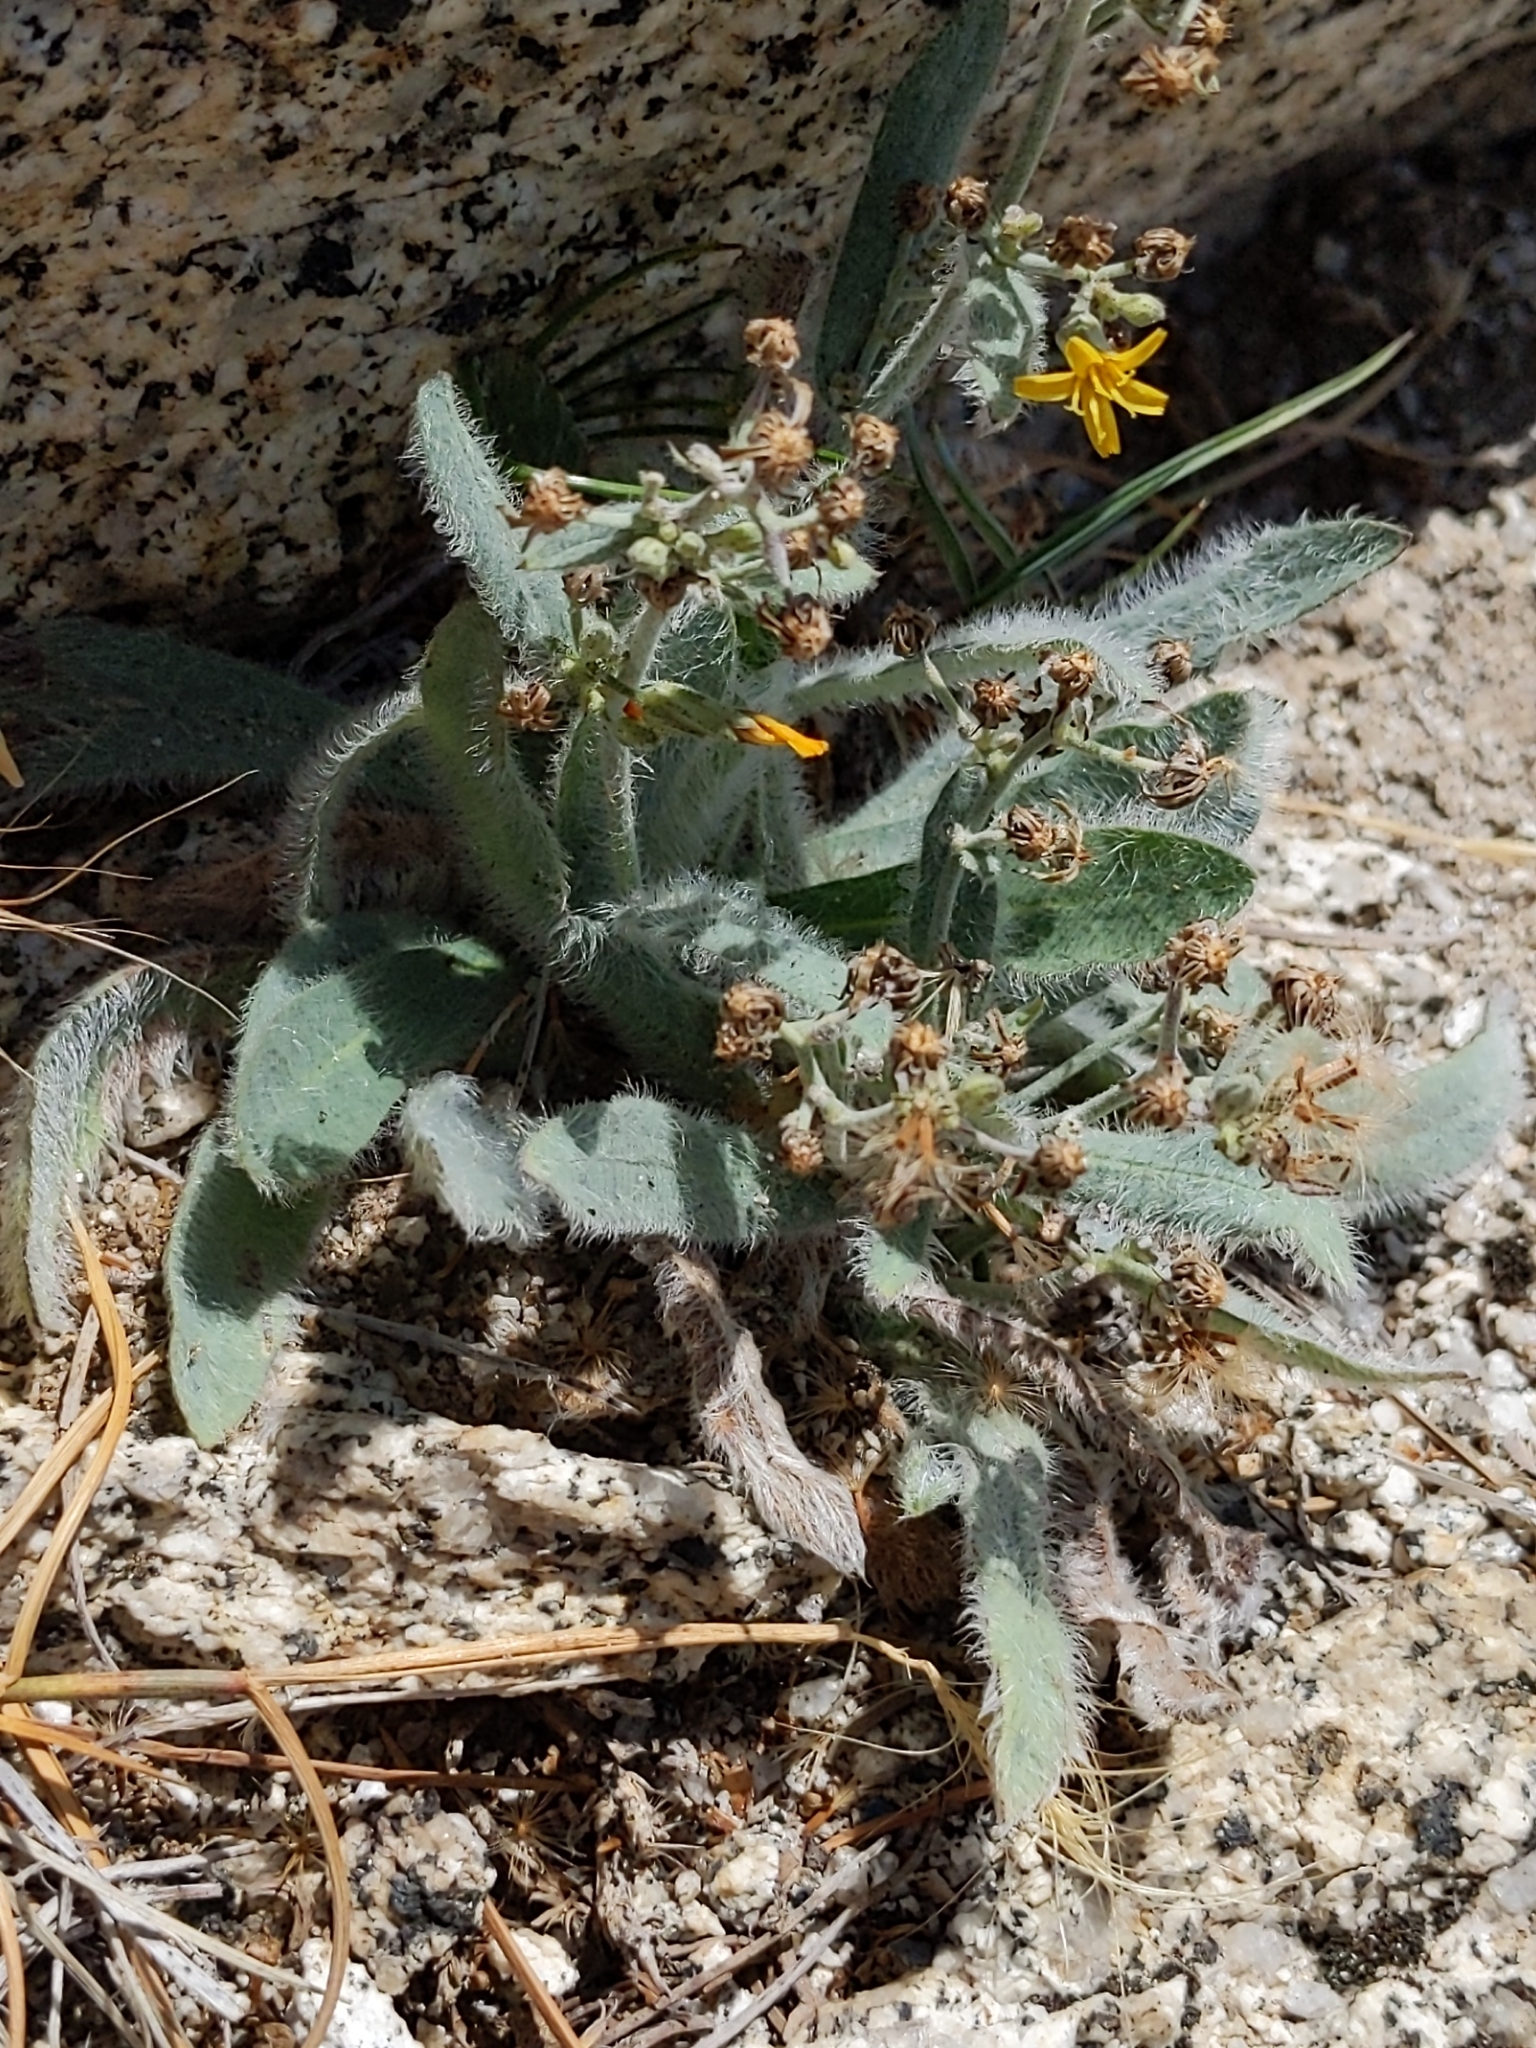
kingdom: Plantae
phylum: Tracheophyta
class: Magnoliopsida
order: Asterales
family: Asteraceae
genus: Hieracium
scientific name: Hieracium horridum
